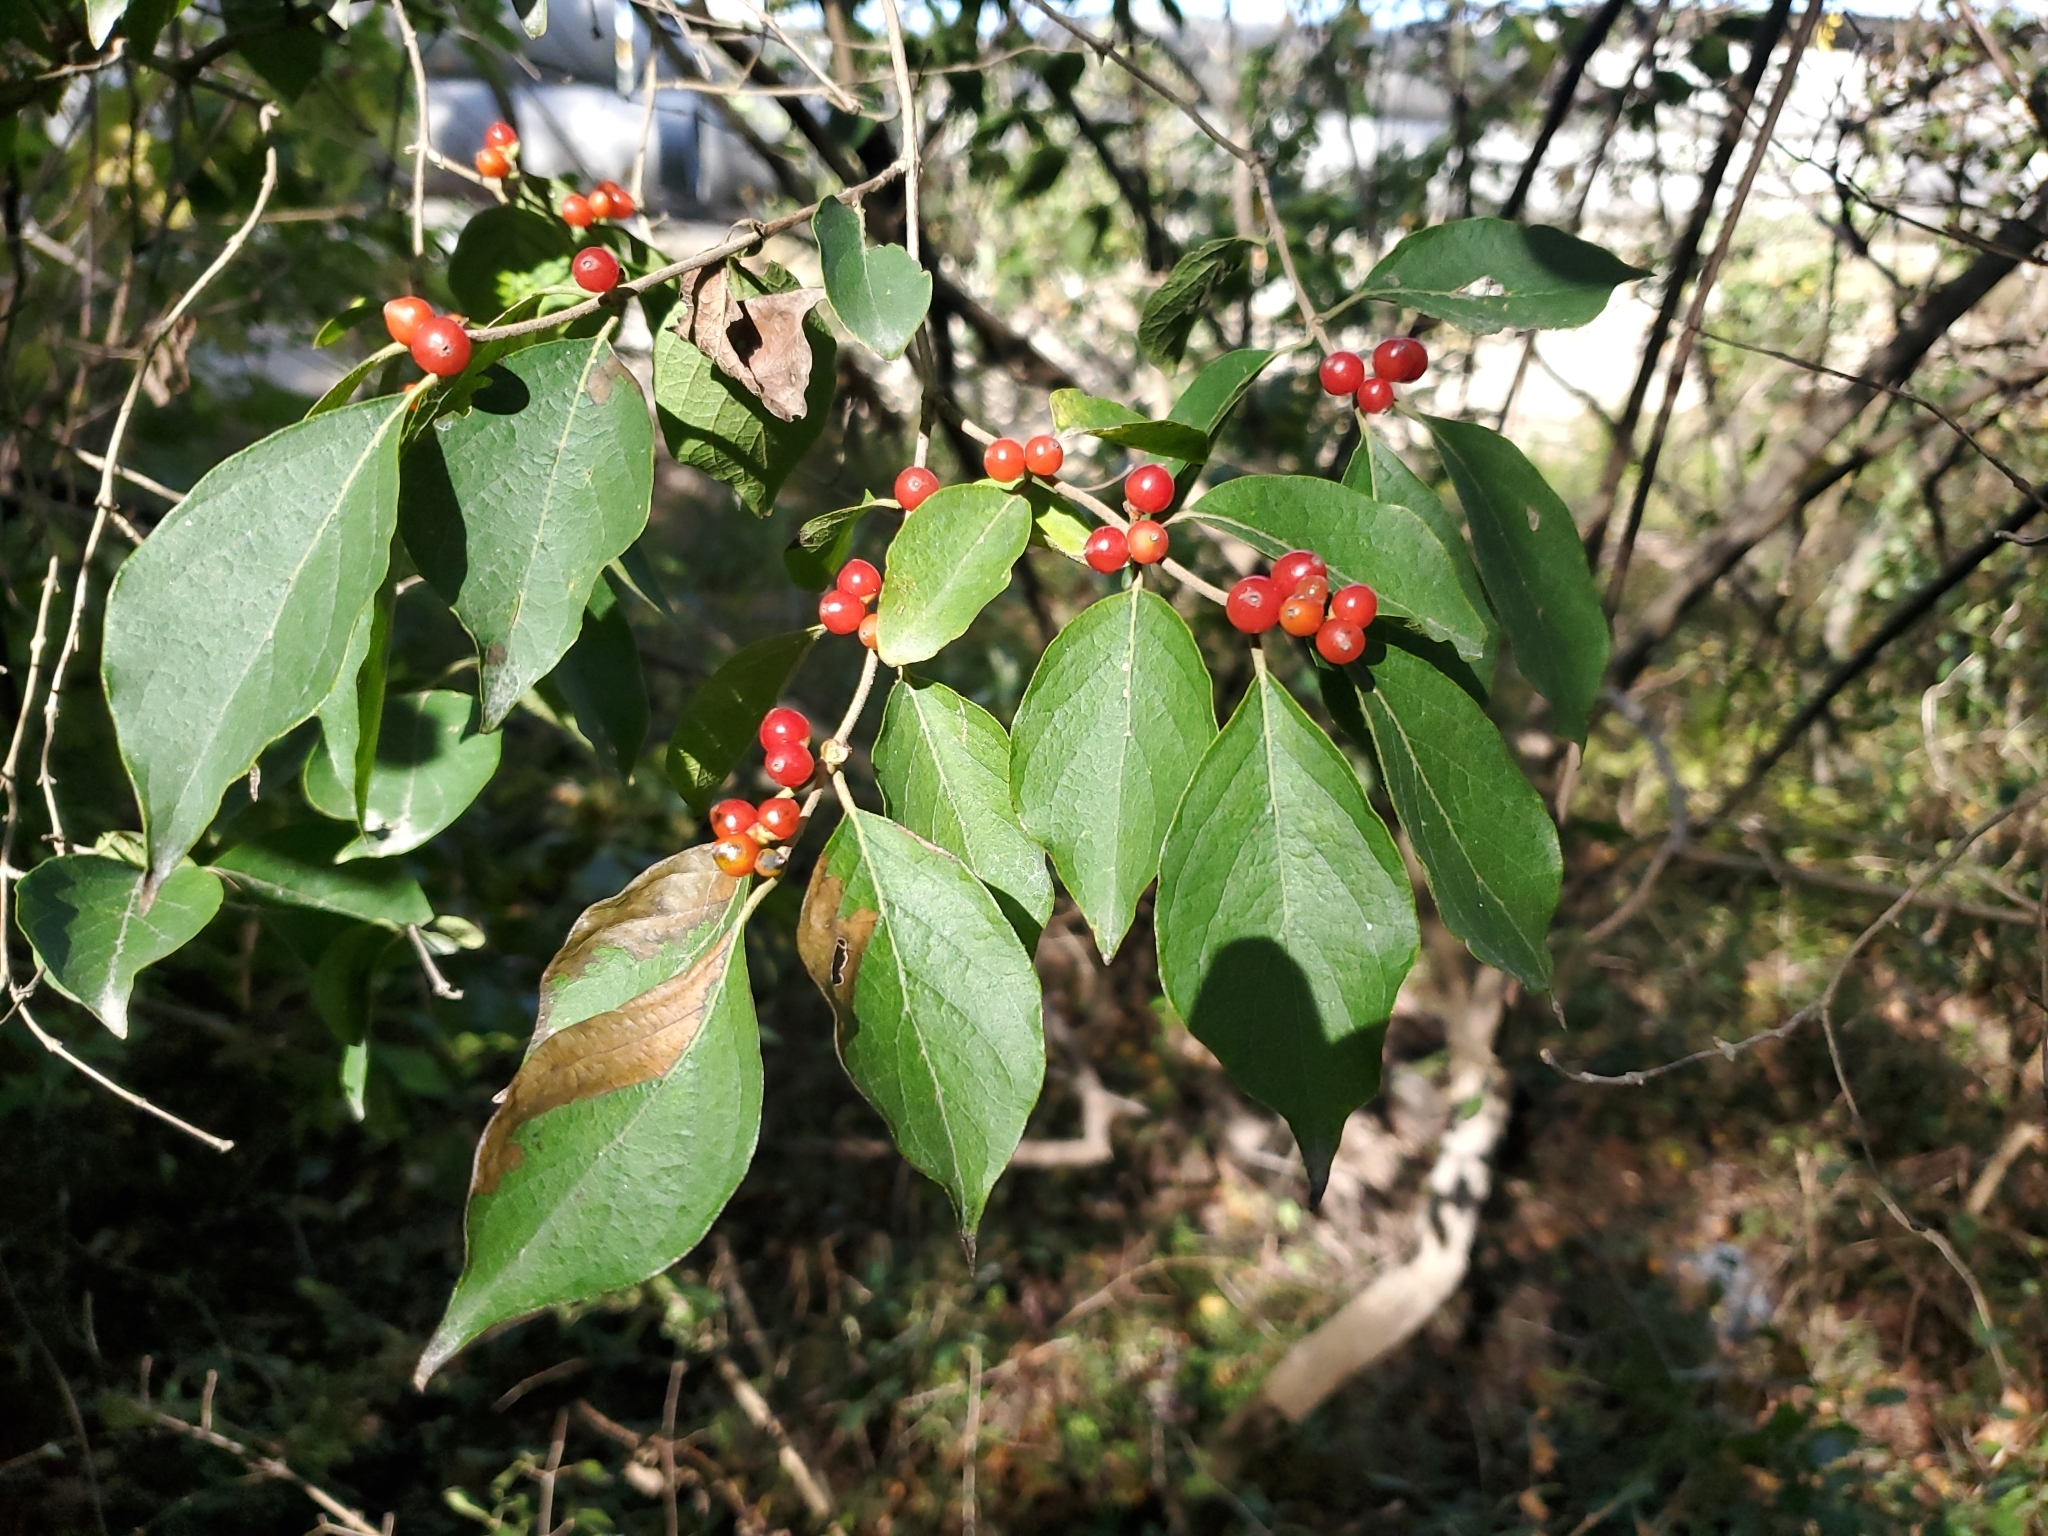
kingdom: Plantae
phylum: Tracheophyta
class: Magnoliopsida
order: Dipsacales
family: Caprifoliaceae
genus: Lonicera
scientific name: Lonicera maackii
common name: Amur honeysuckle
